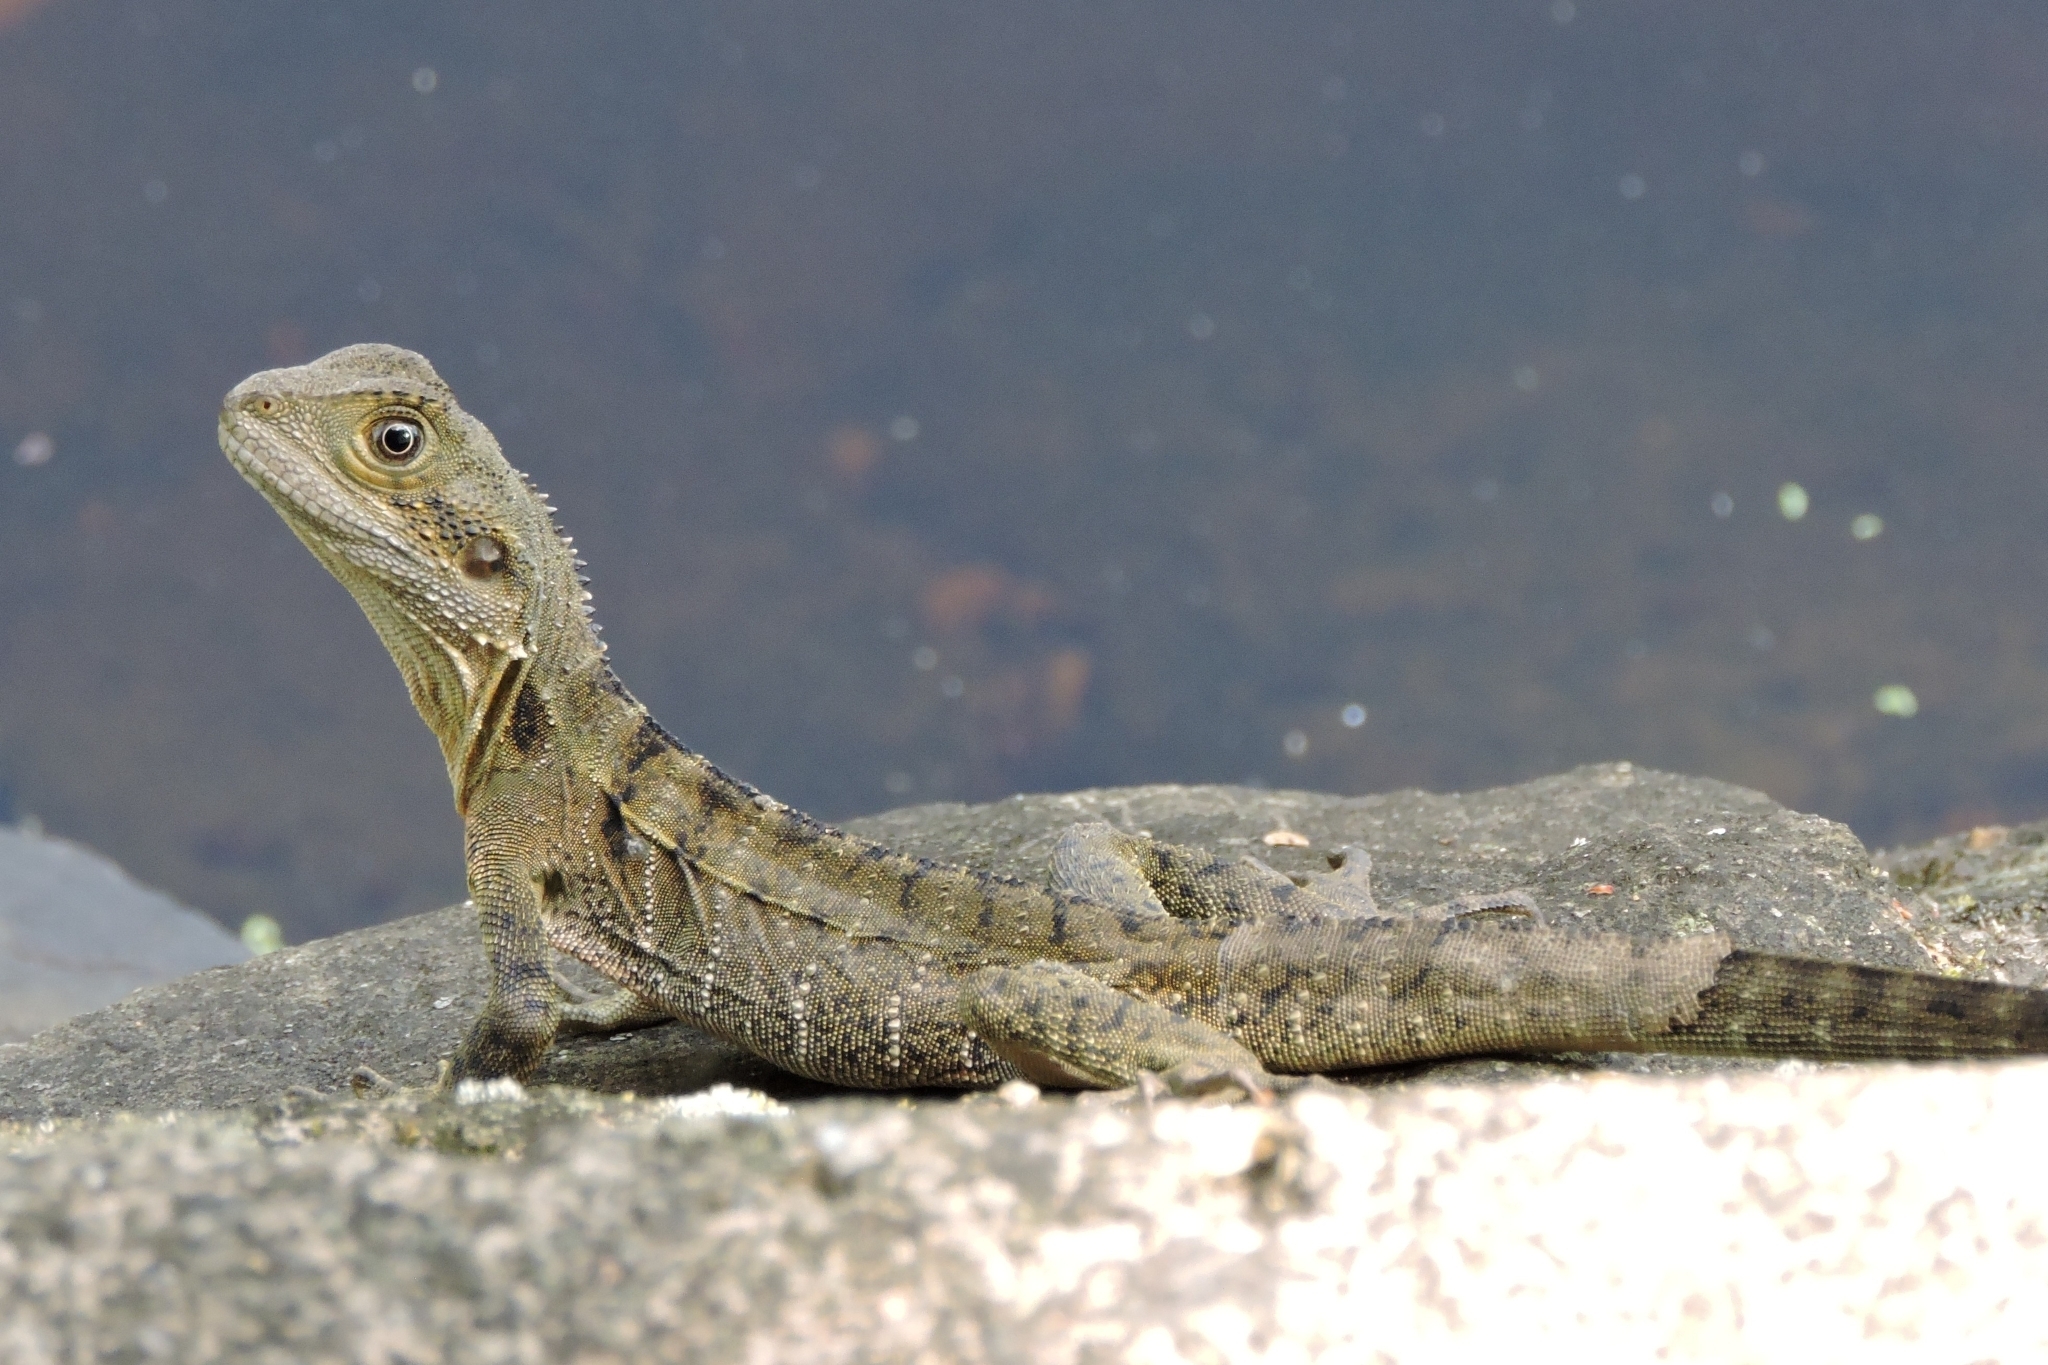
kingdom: Animalia
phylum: Chordata
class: Squamata
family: Agamidae
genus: Intellagama
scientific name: Intellagama lesueurii
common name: Eastern water dragon
